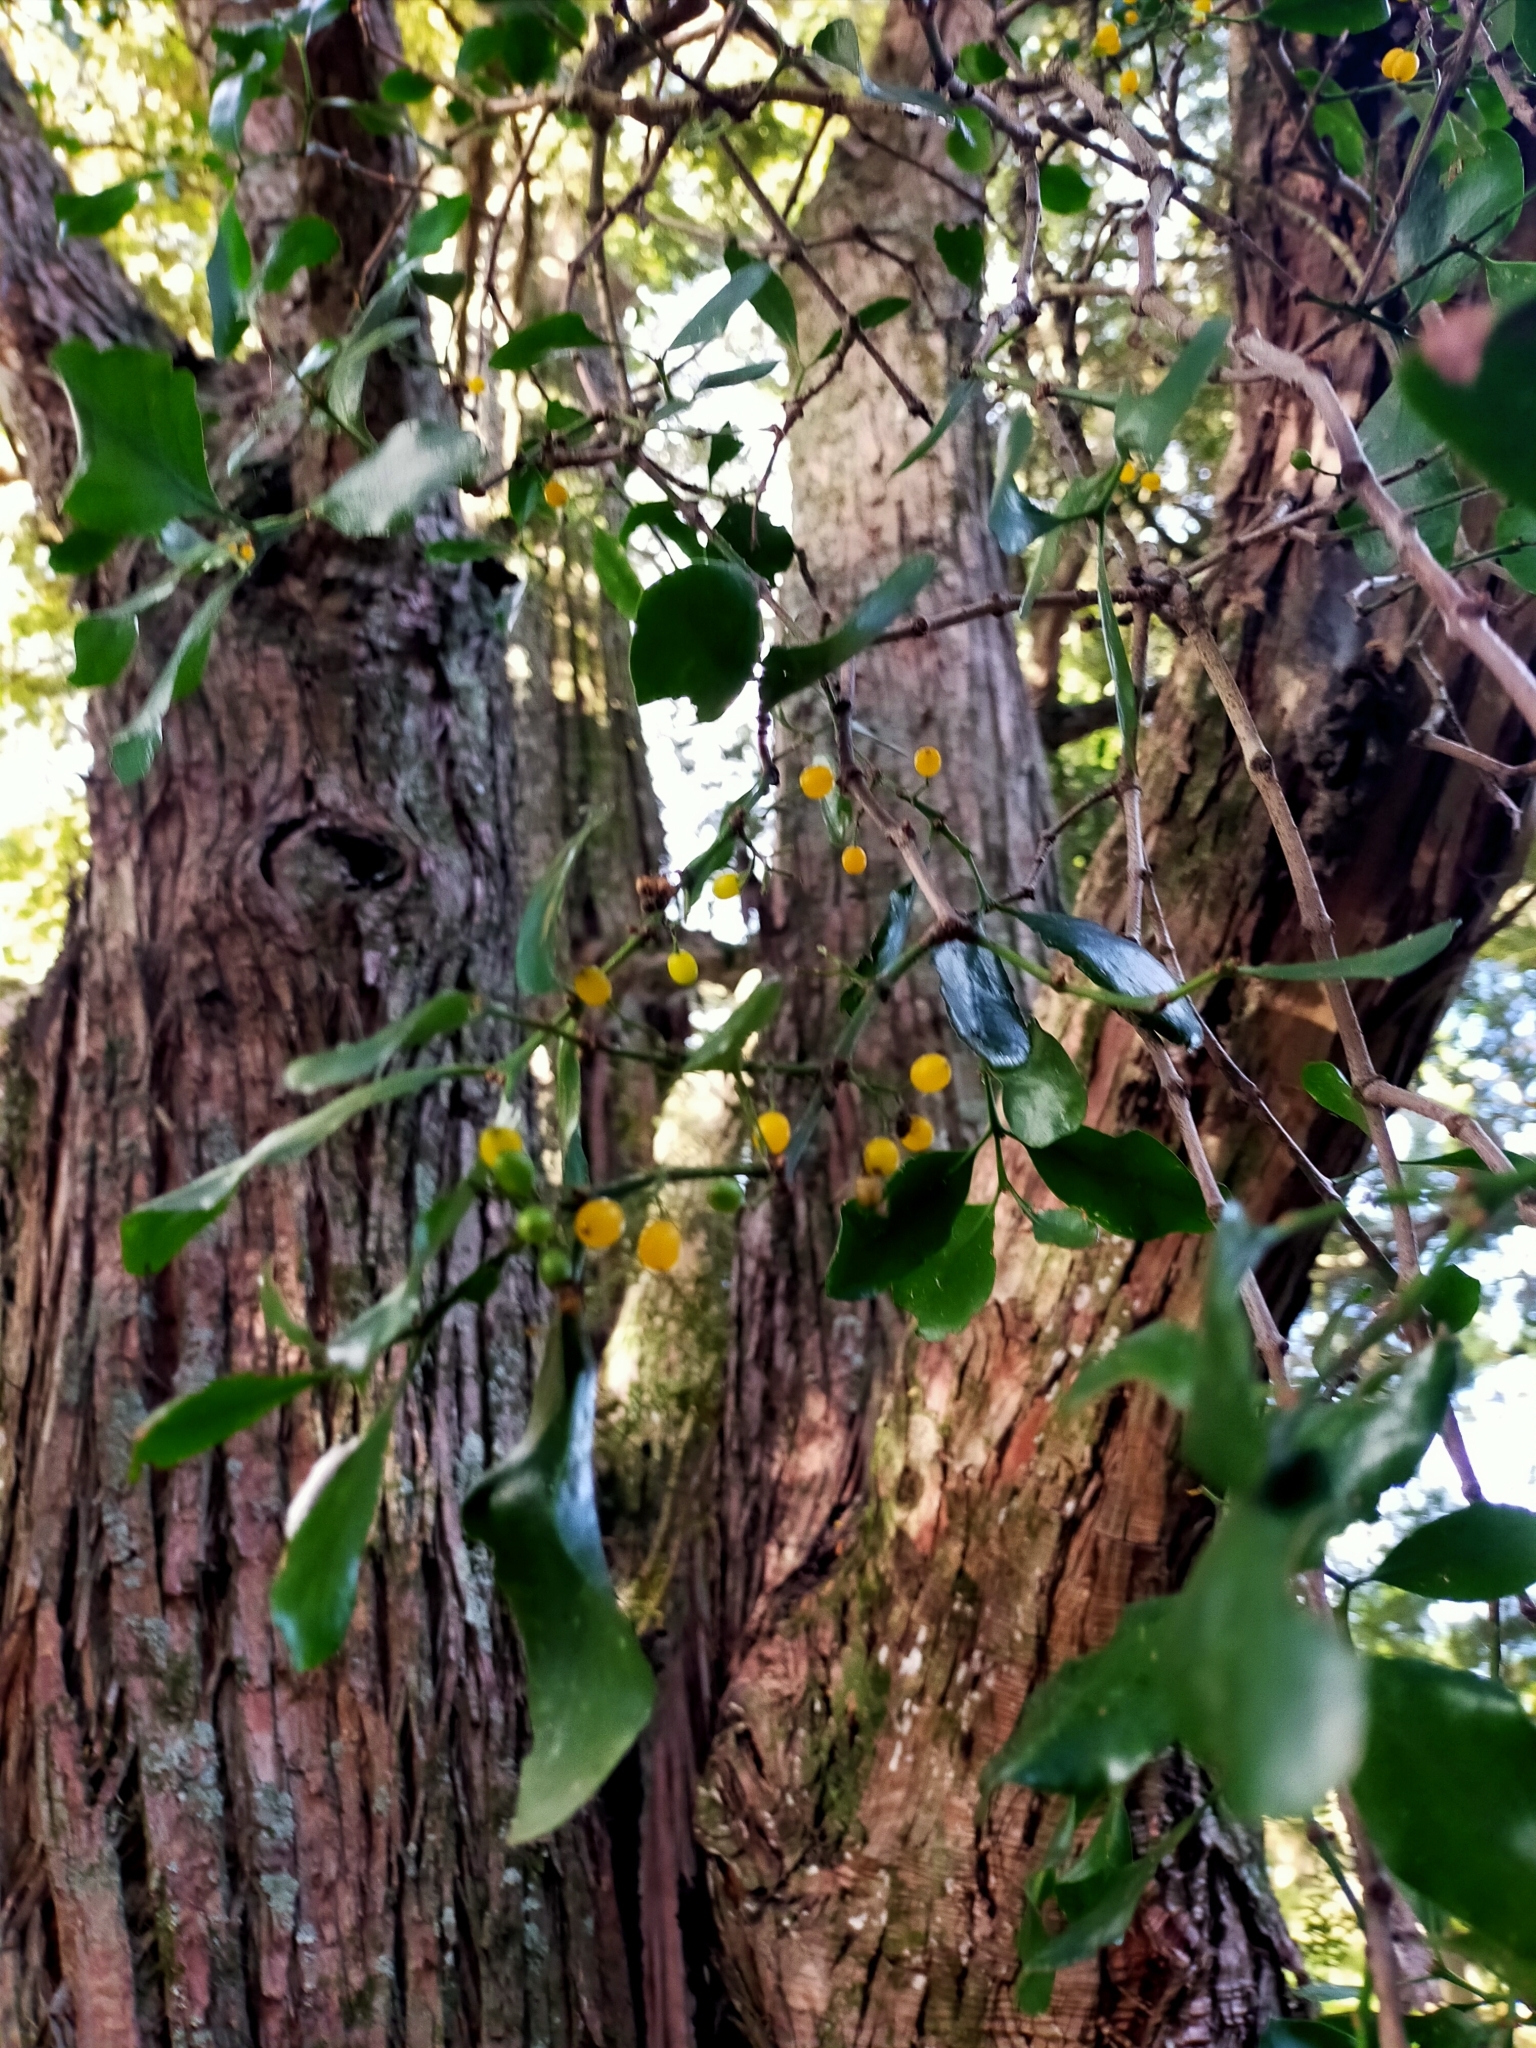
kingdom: Plantae
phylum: Tracheophyta
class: Magnoliopsida
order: Santalales
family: Loranthaceae
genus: Ileostylus
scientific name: Ileostylus micranthus
